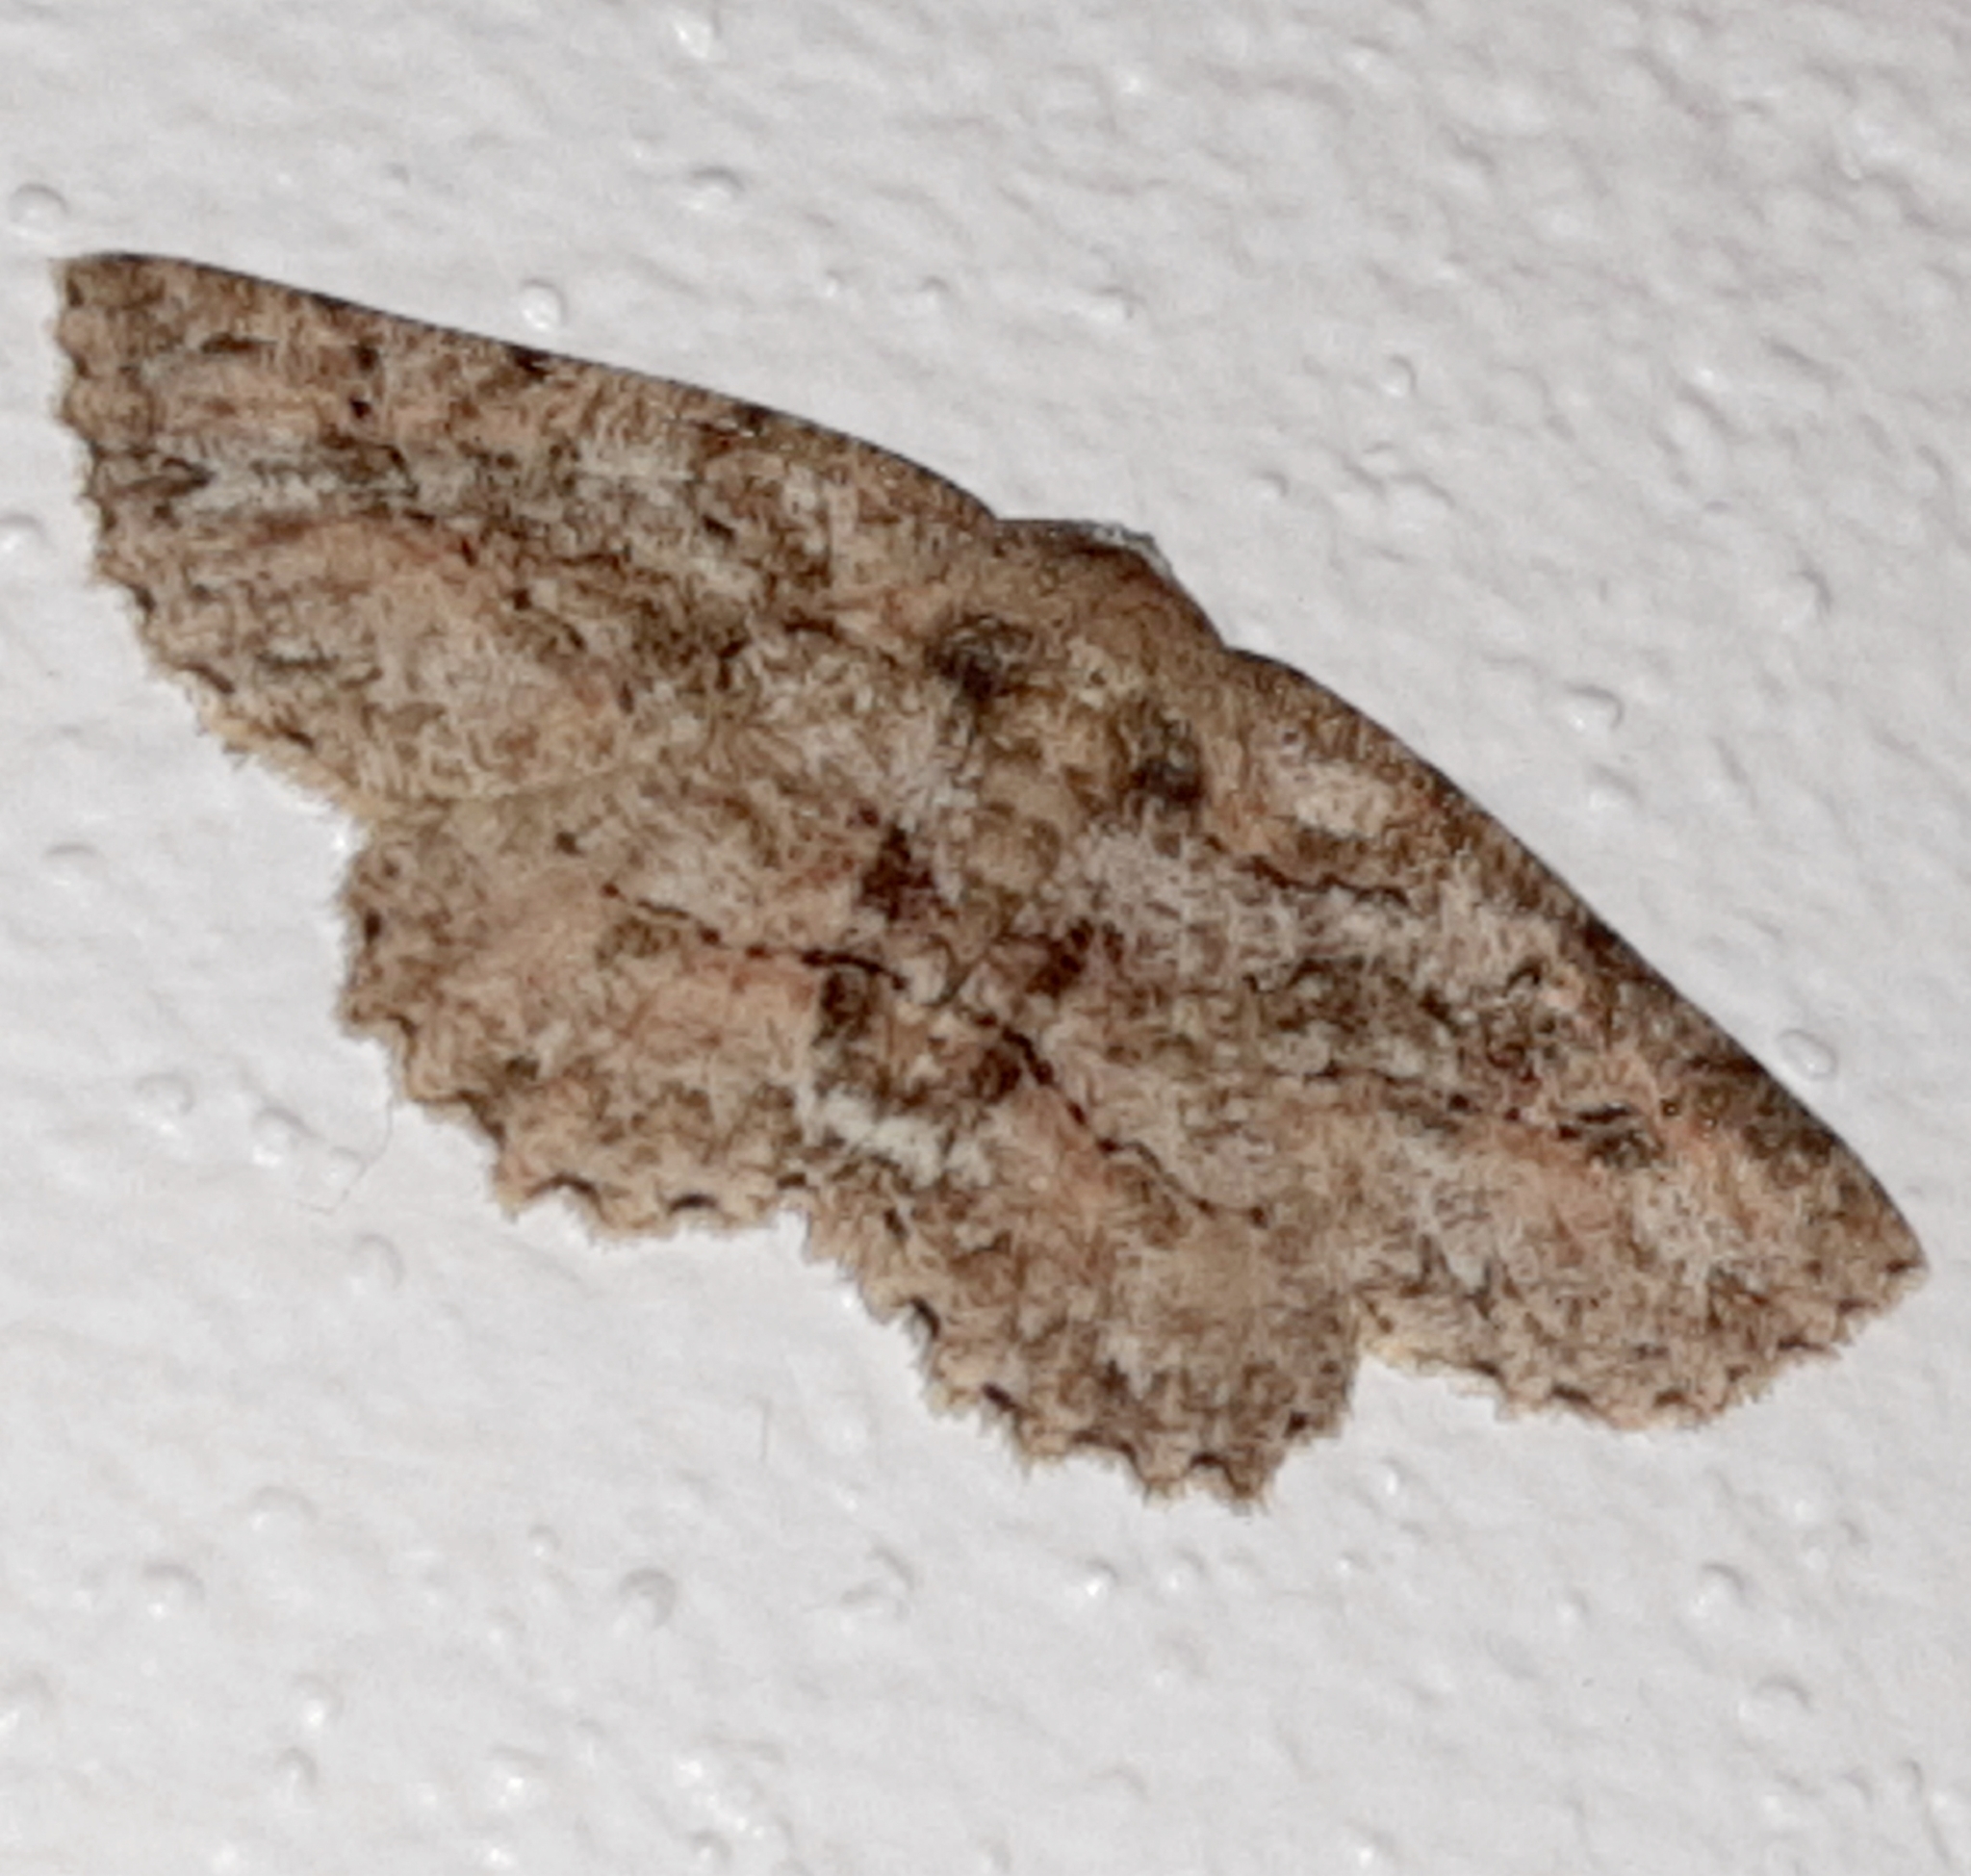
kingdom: Animalia
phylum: Arthropoda
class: Insecta
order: Lepidoptera
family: Geometridae
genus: Bryoptera
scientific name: Bryoptera subbrunnea
